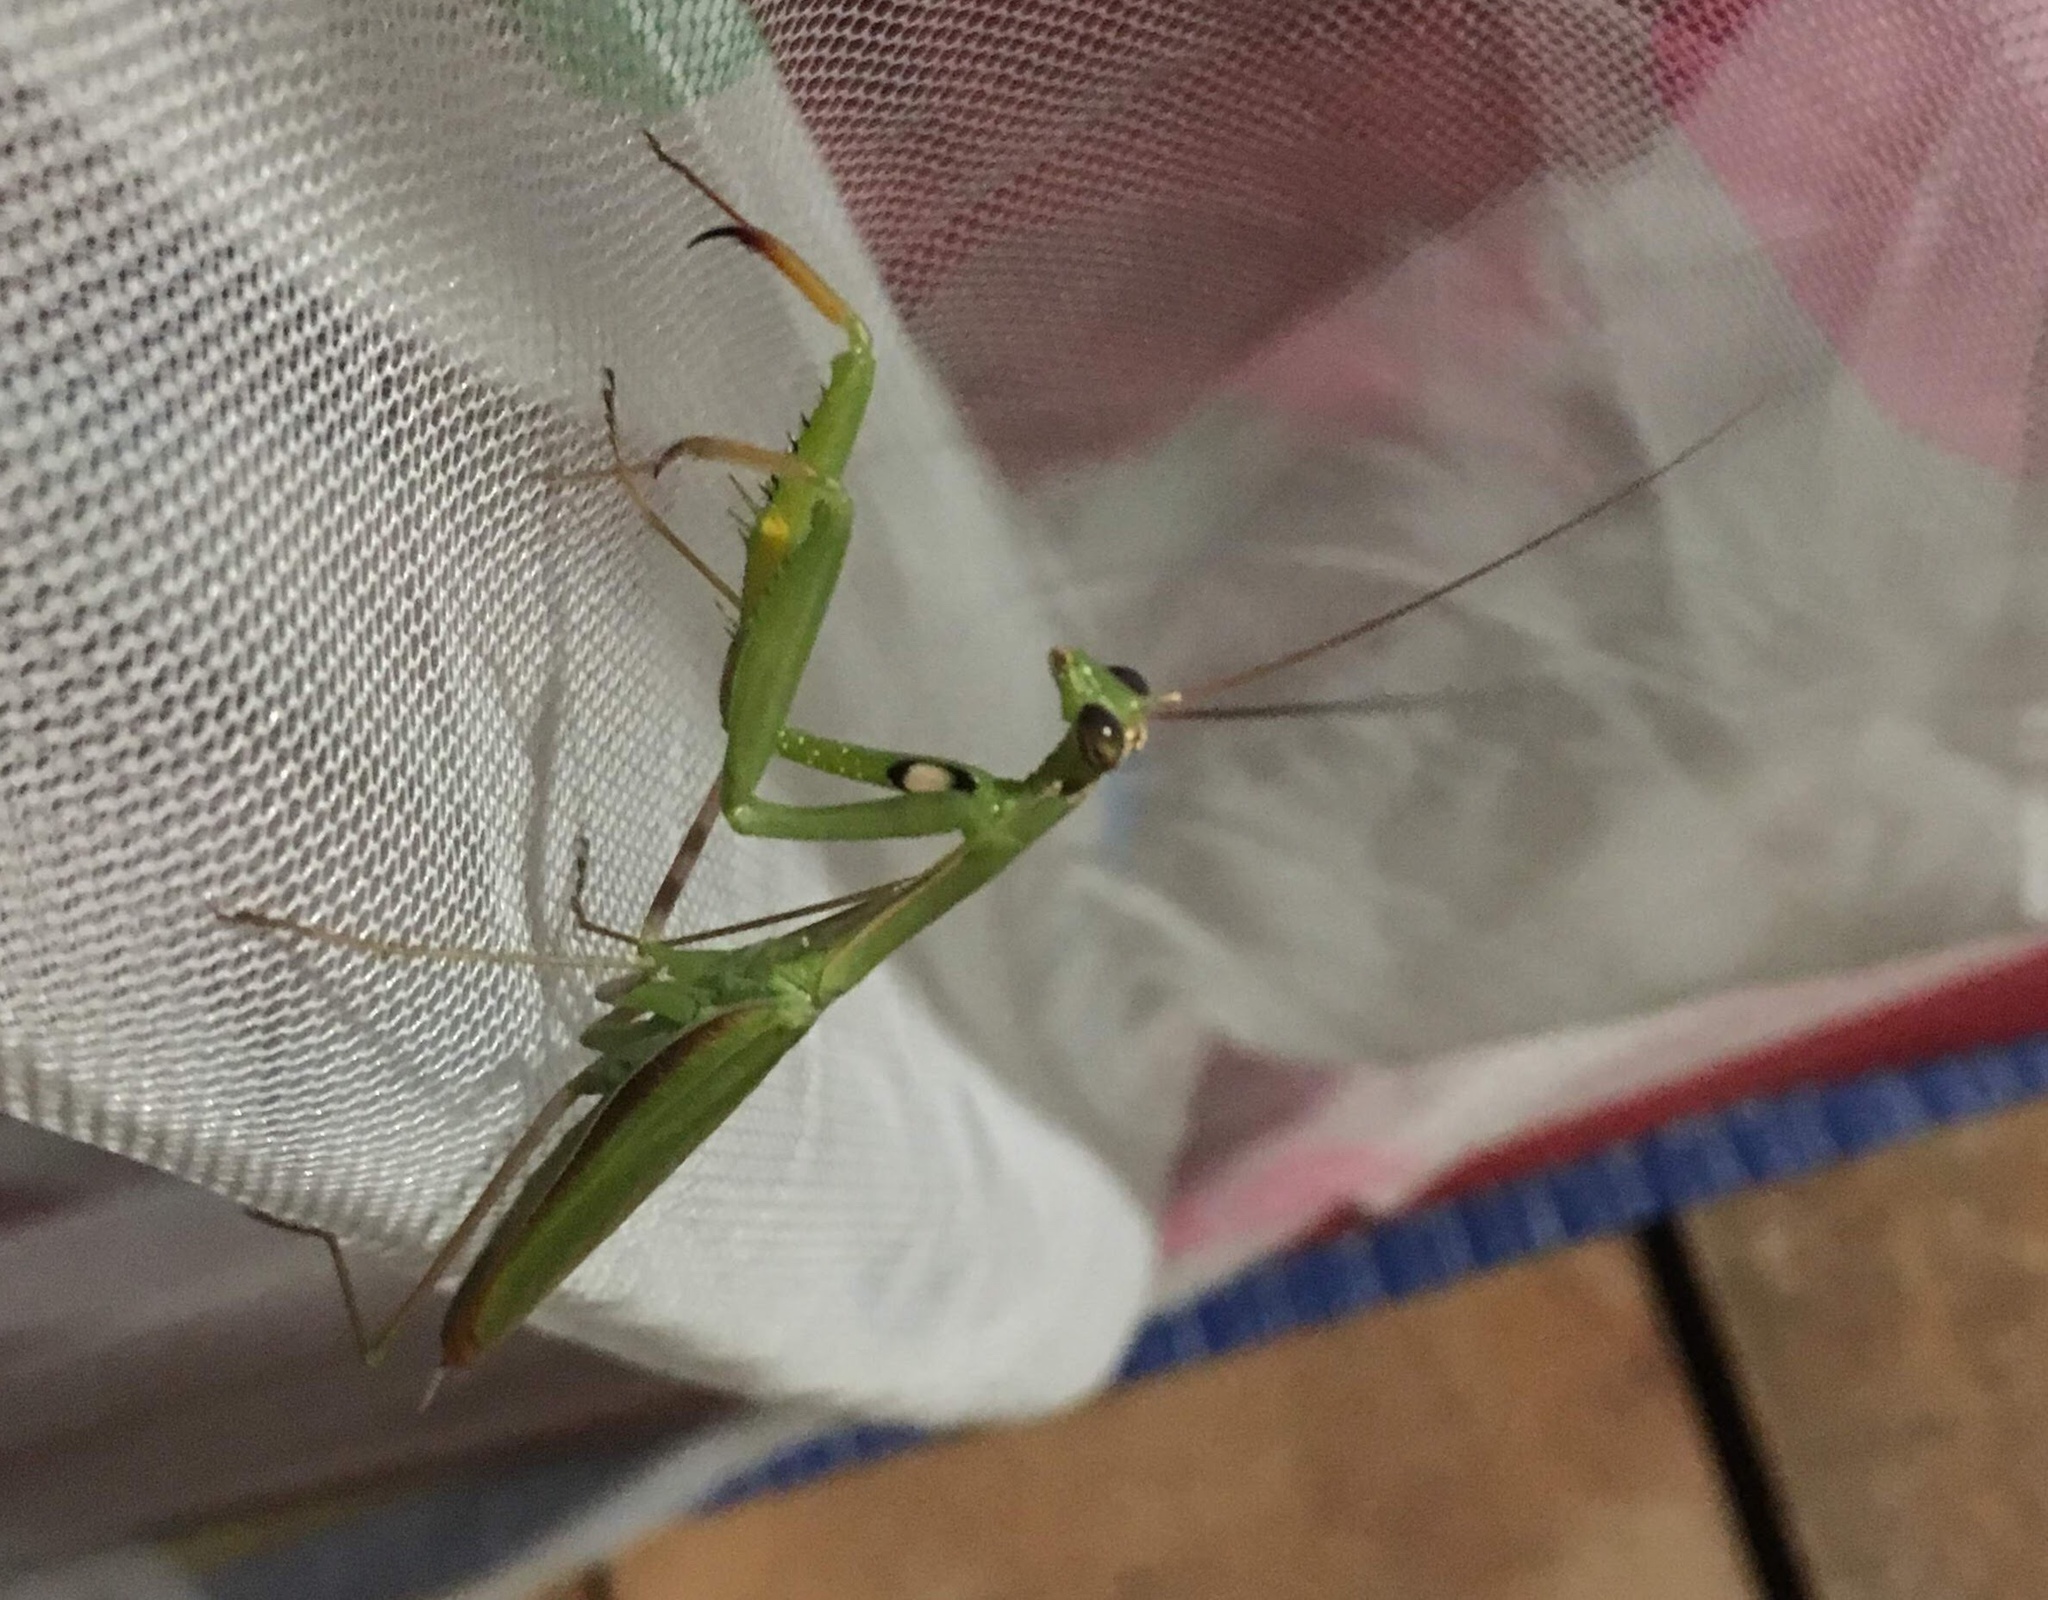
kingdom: Animalia
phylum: Arthropoda
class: Insecta
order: Mantodea
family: Mantidae
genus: Mantis
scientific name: Mantis religiosa
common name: Praying mantis
